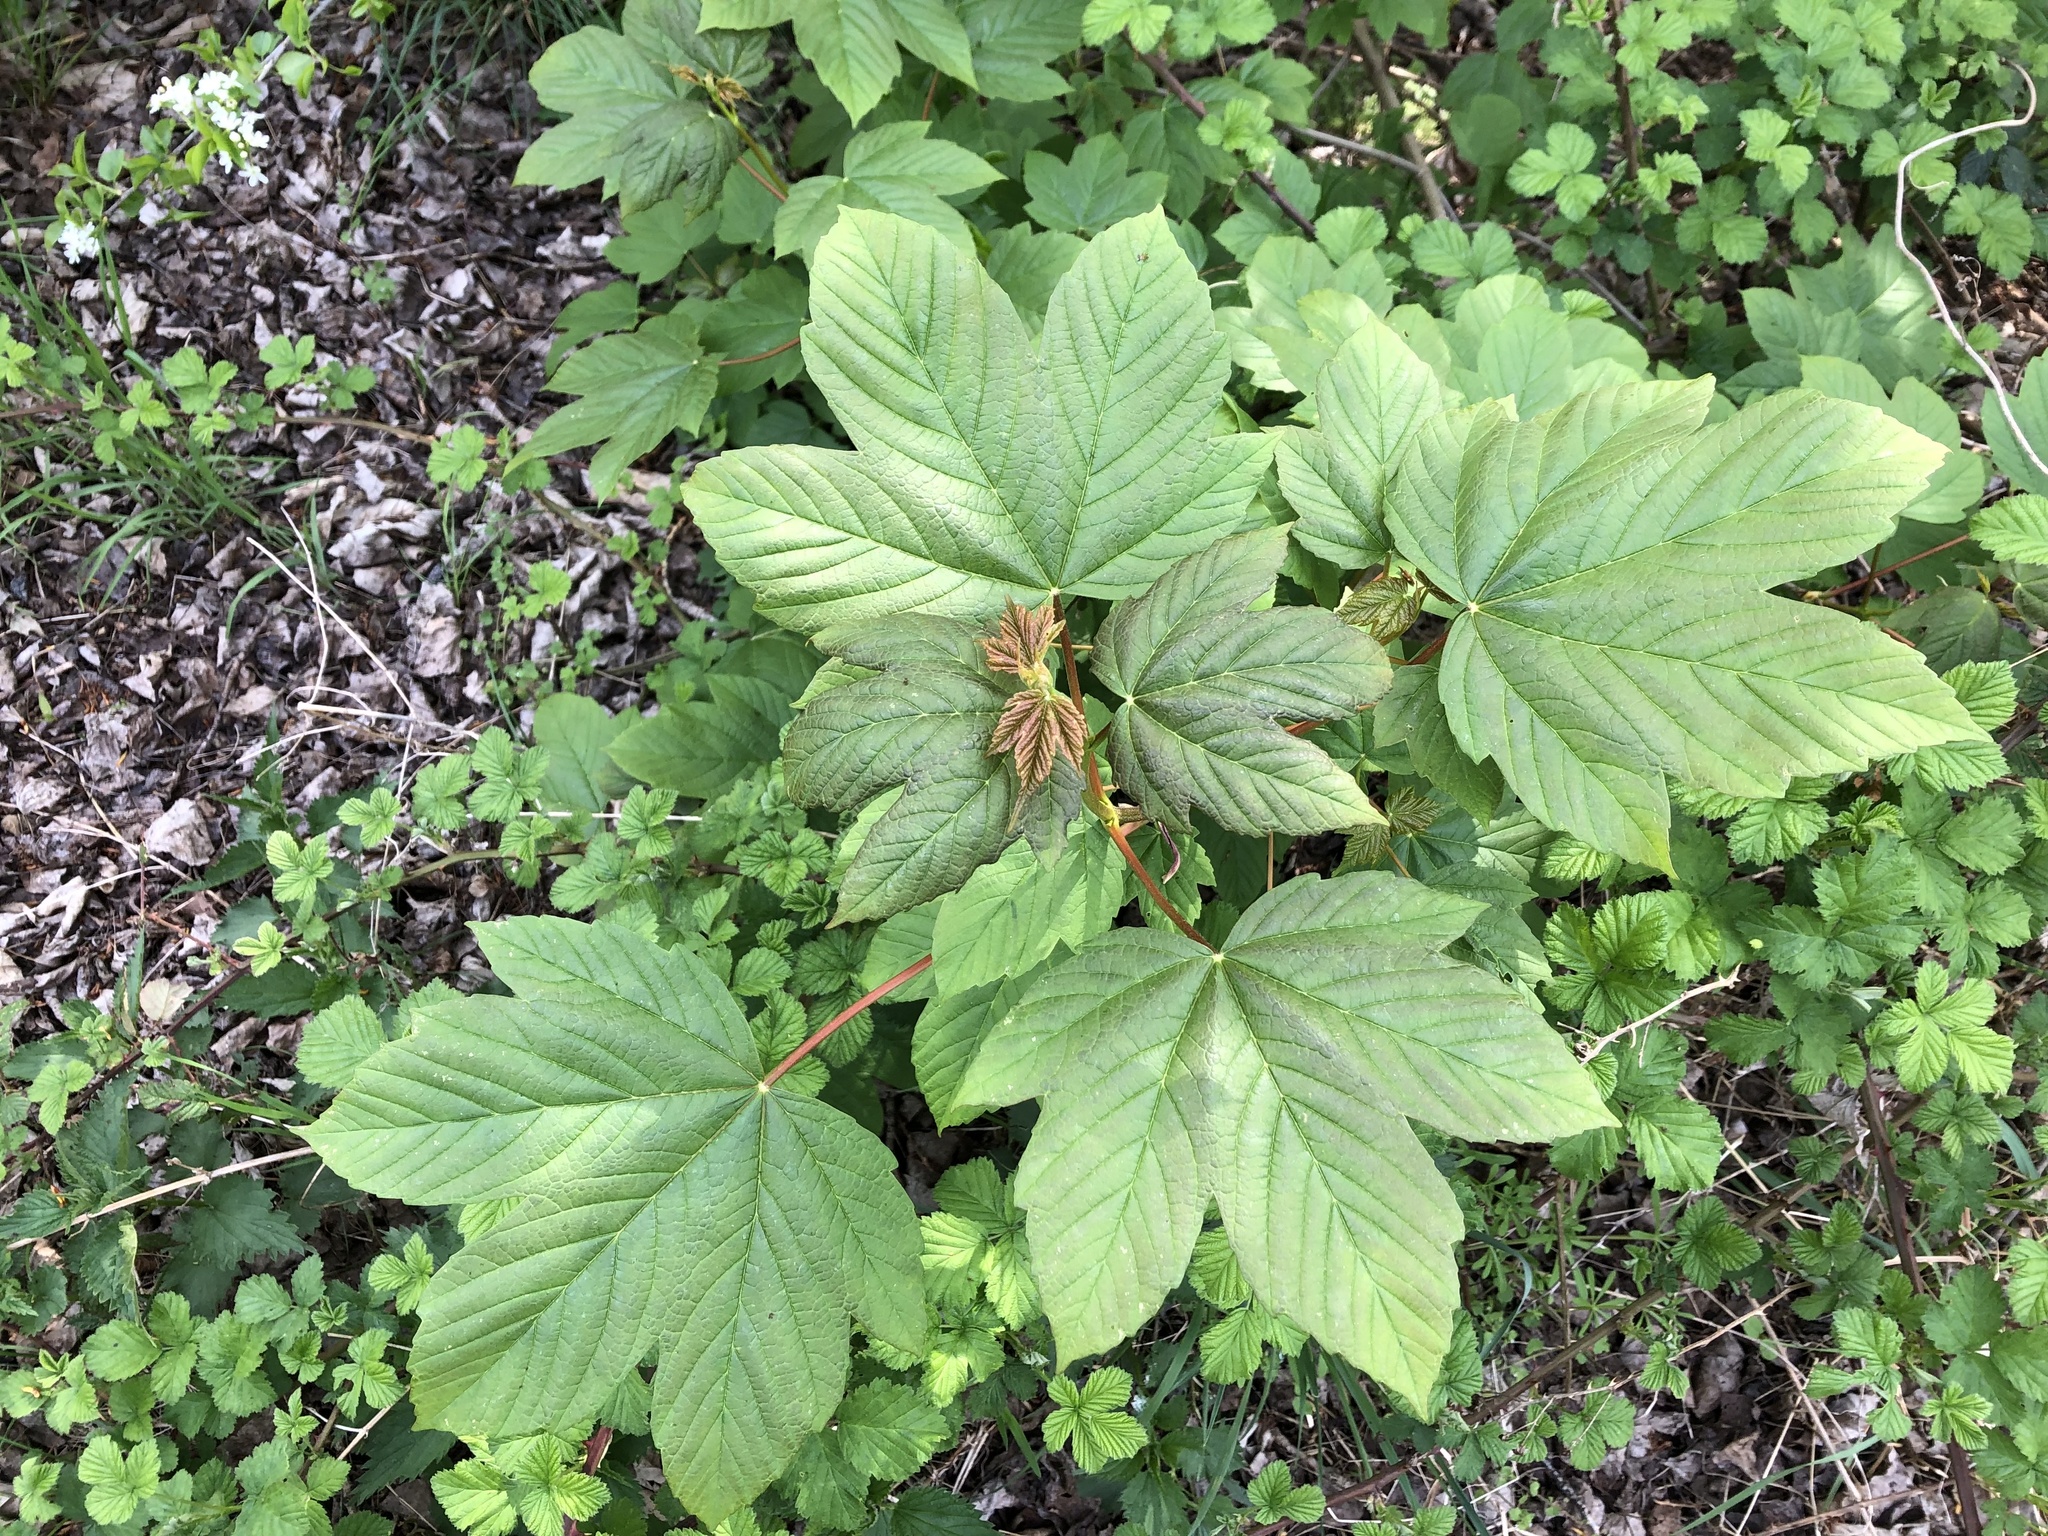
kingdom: Plantae
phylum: Tracheophyta
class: Magnoliopsida
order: Sapindales
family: Sapindaceae
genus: Acer
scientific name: Acer pseudoplatanus
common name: Sycamore
